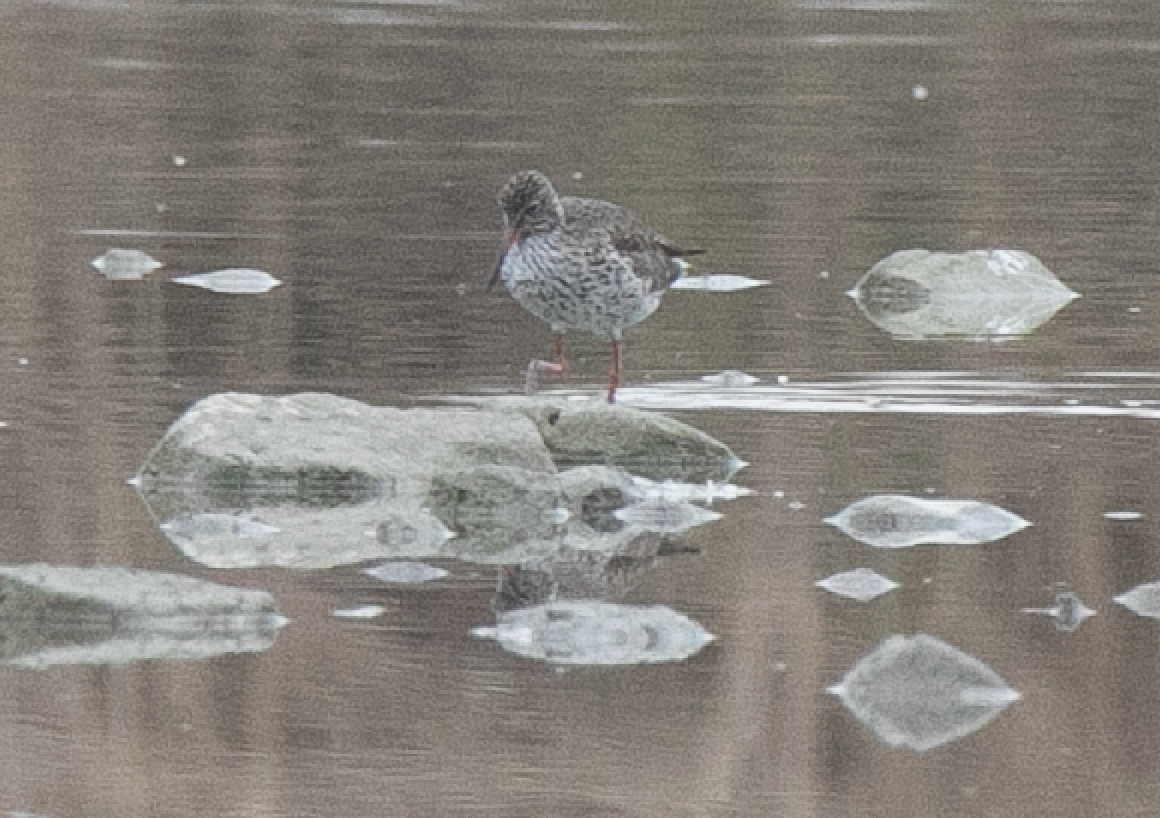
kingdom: Animalia
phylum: Chordata
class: Aves
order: Charadriiformes
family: Scolopacidae
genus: Tringa
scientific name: Tringa erythropus
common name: Spotted redshank
